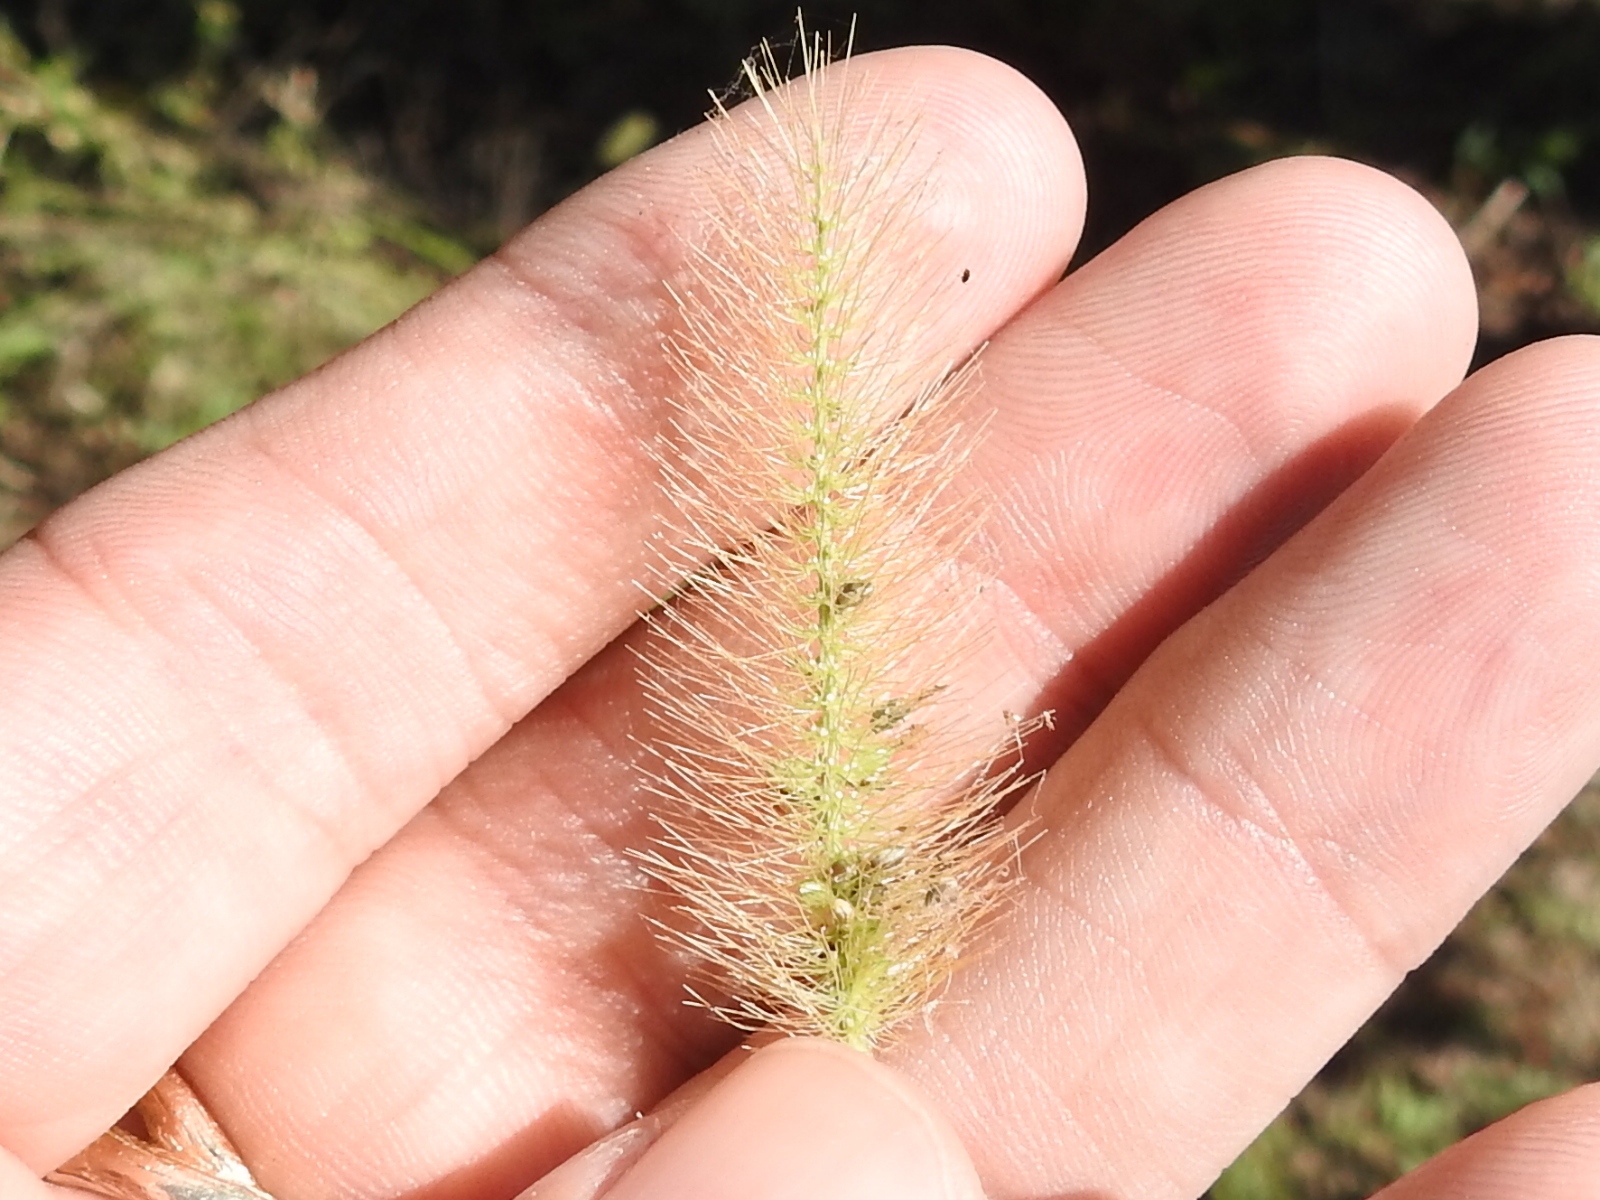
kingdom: Plantae
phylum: Tracheophyta
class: Liliopsida
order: Poales
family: Poaceae
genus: Setaria
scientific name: Setaria parviflora
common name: Knotroot bristle-grass
